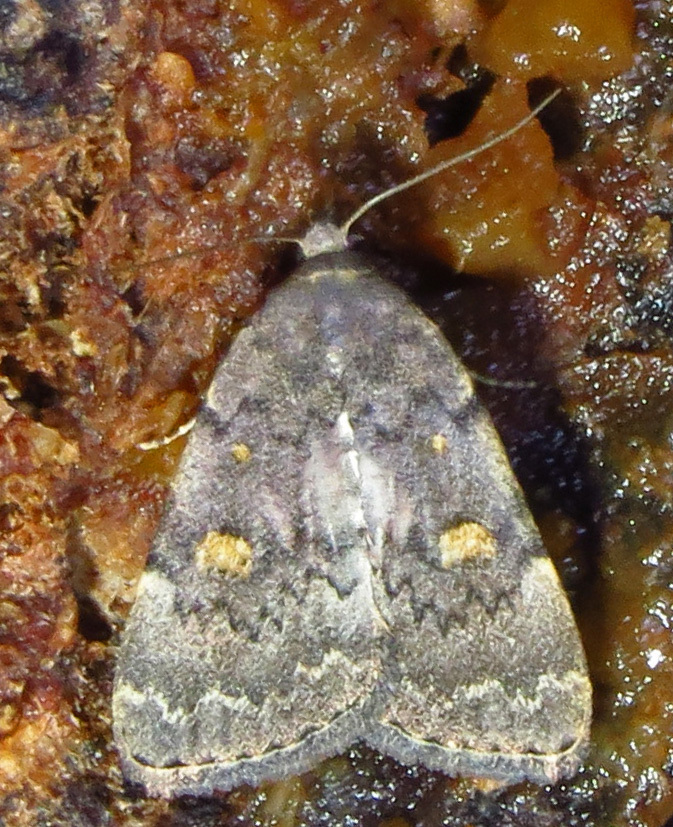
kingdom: Animalia
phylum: Arthropoda
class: Insecta
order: Lepidoptera
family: Erebidae
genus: Idia
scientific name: Idia aemula
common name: Common idia moth
